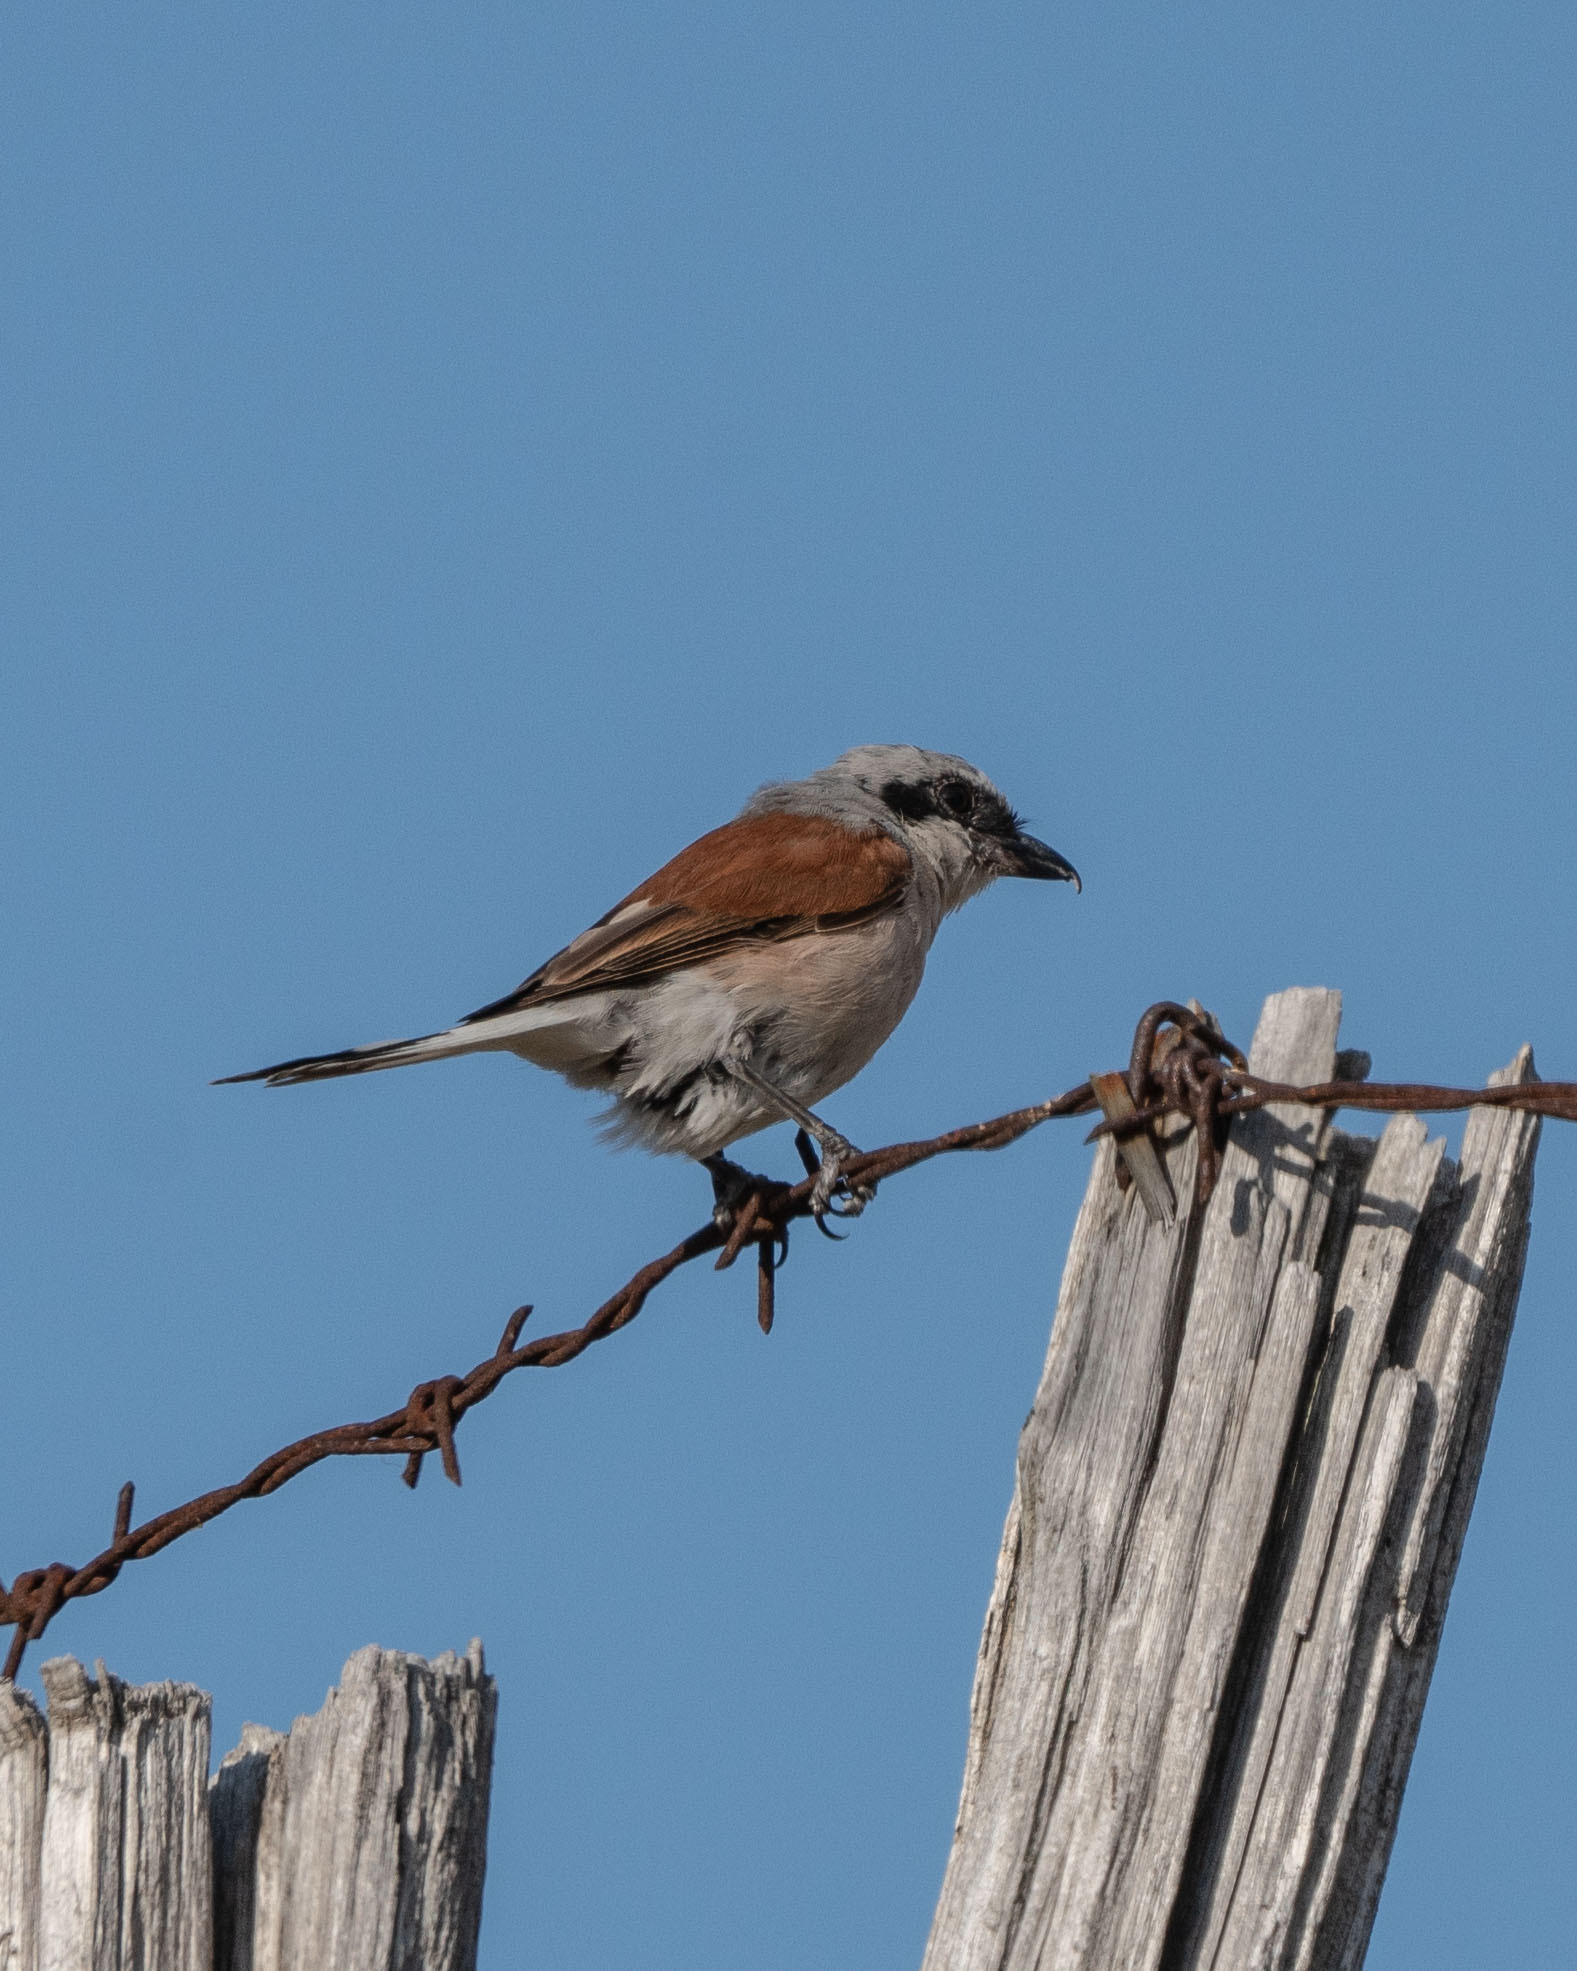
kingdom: Animalia
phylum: Chordata
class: Aves
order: Passeriformes
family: Laniidae
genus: Lanius
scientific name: Lanius collurio
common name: Red-backed shrike
